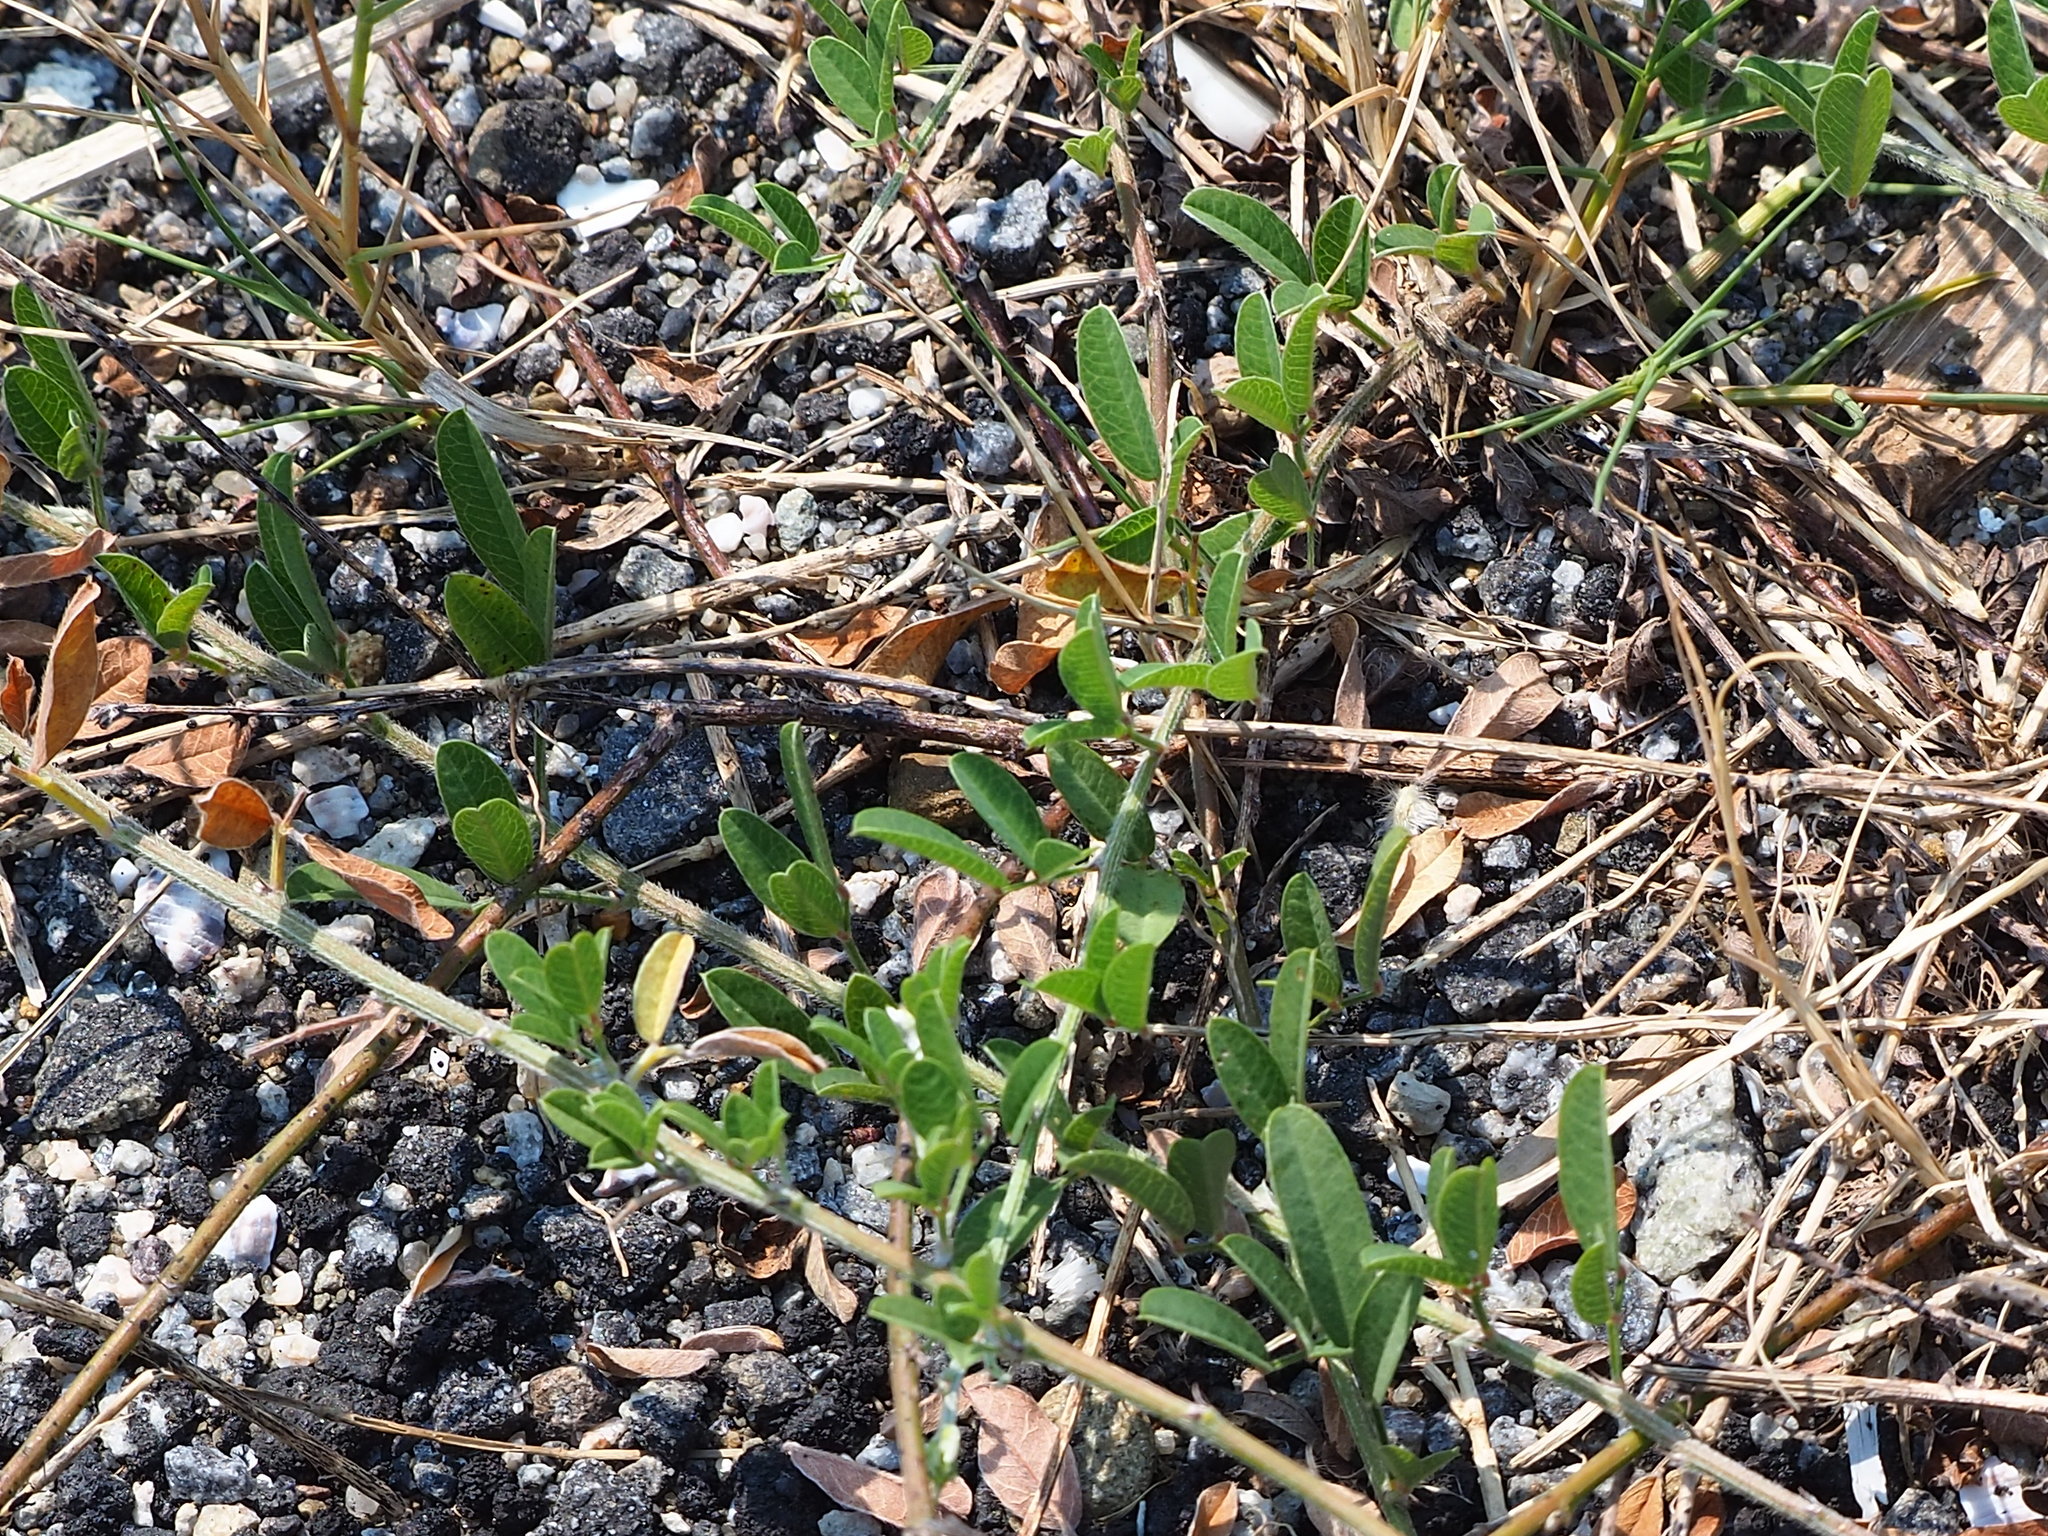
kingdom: Plantae
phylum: Tracheophyta
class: Magnoliopsida
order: Fabales
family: Fabaceae
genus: Lespedeza
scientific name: Lespedeza daurica
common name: Dahurian lespedeza
